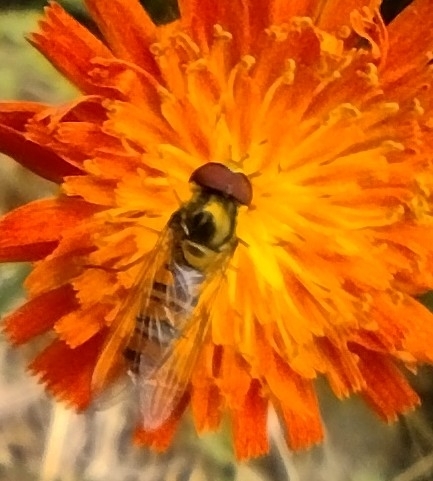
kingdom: Animalia
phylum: Arthropoda
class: Insecta
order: Diptera
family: Syrphidae
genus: Episyrphus
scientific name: Episyrphus balteatus
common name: Marmalade hoverfly
